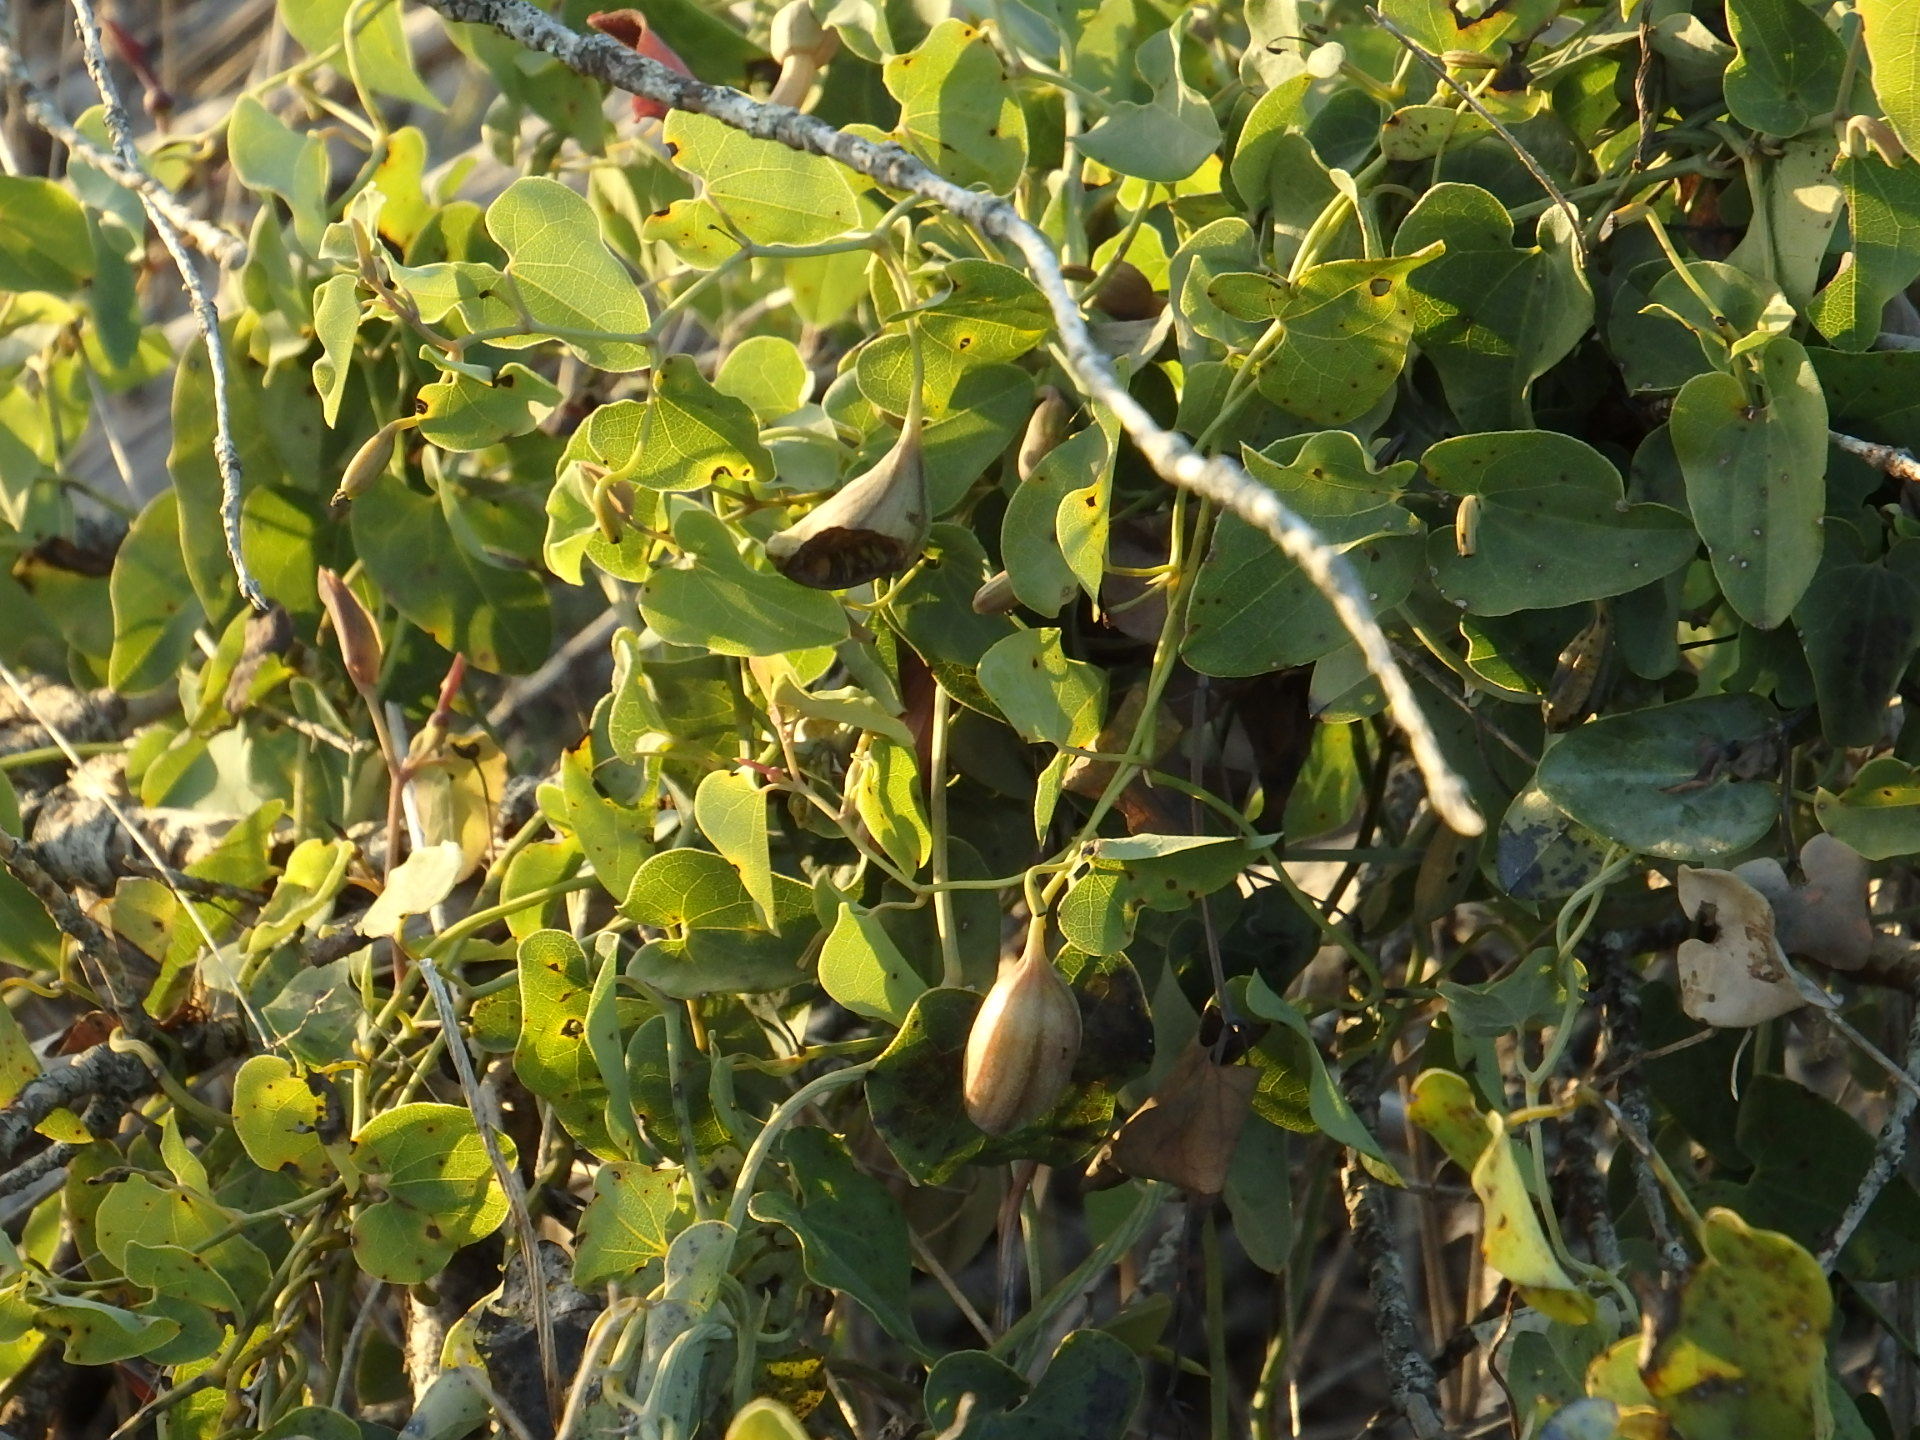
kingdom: Plantae
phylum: Tracheophyta
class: Magnoliopsida
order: Piperales
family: Aristolochiaceae
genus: Aristolochia
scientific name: Aristolochia baetica
